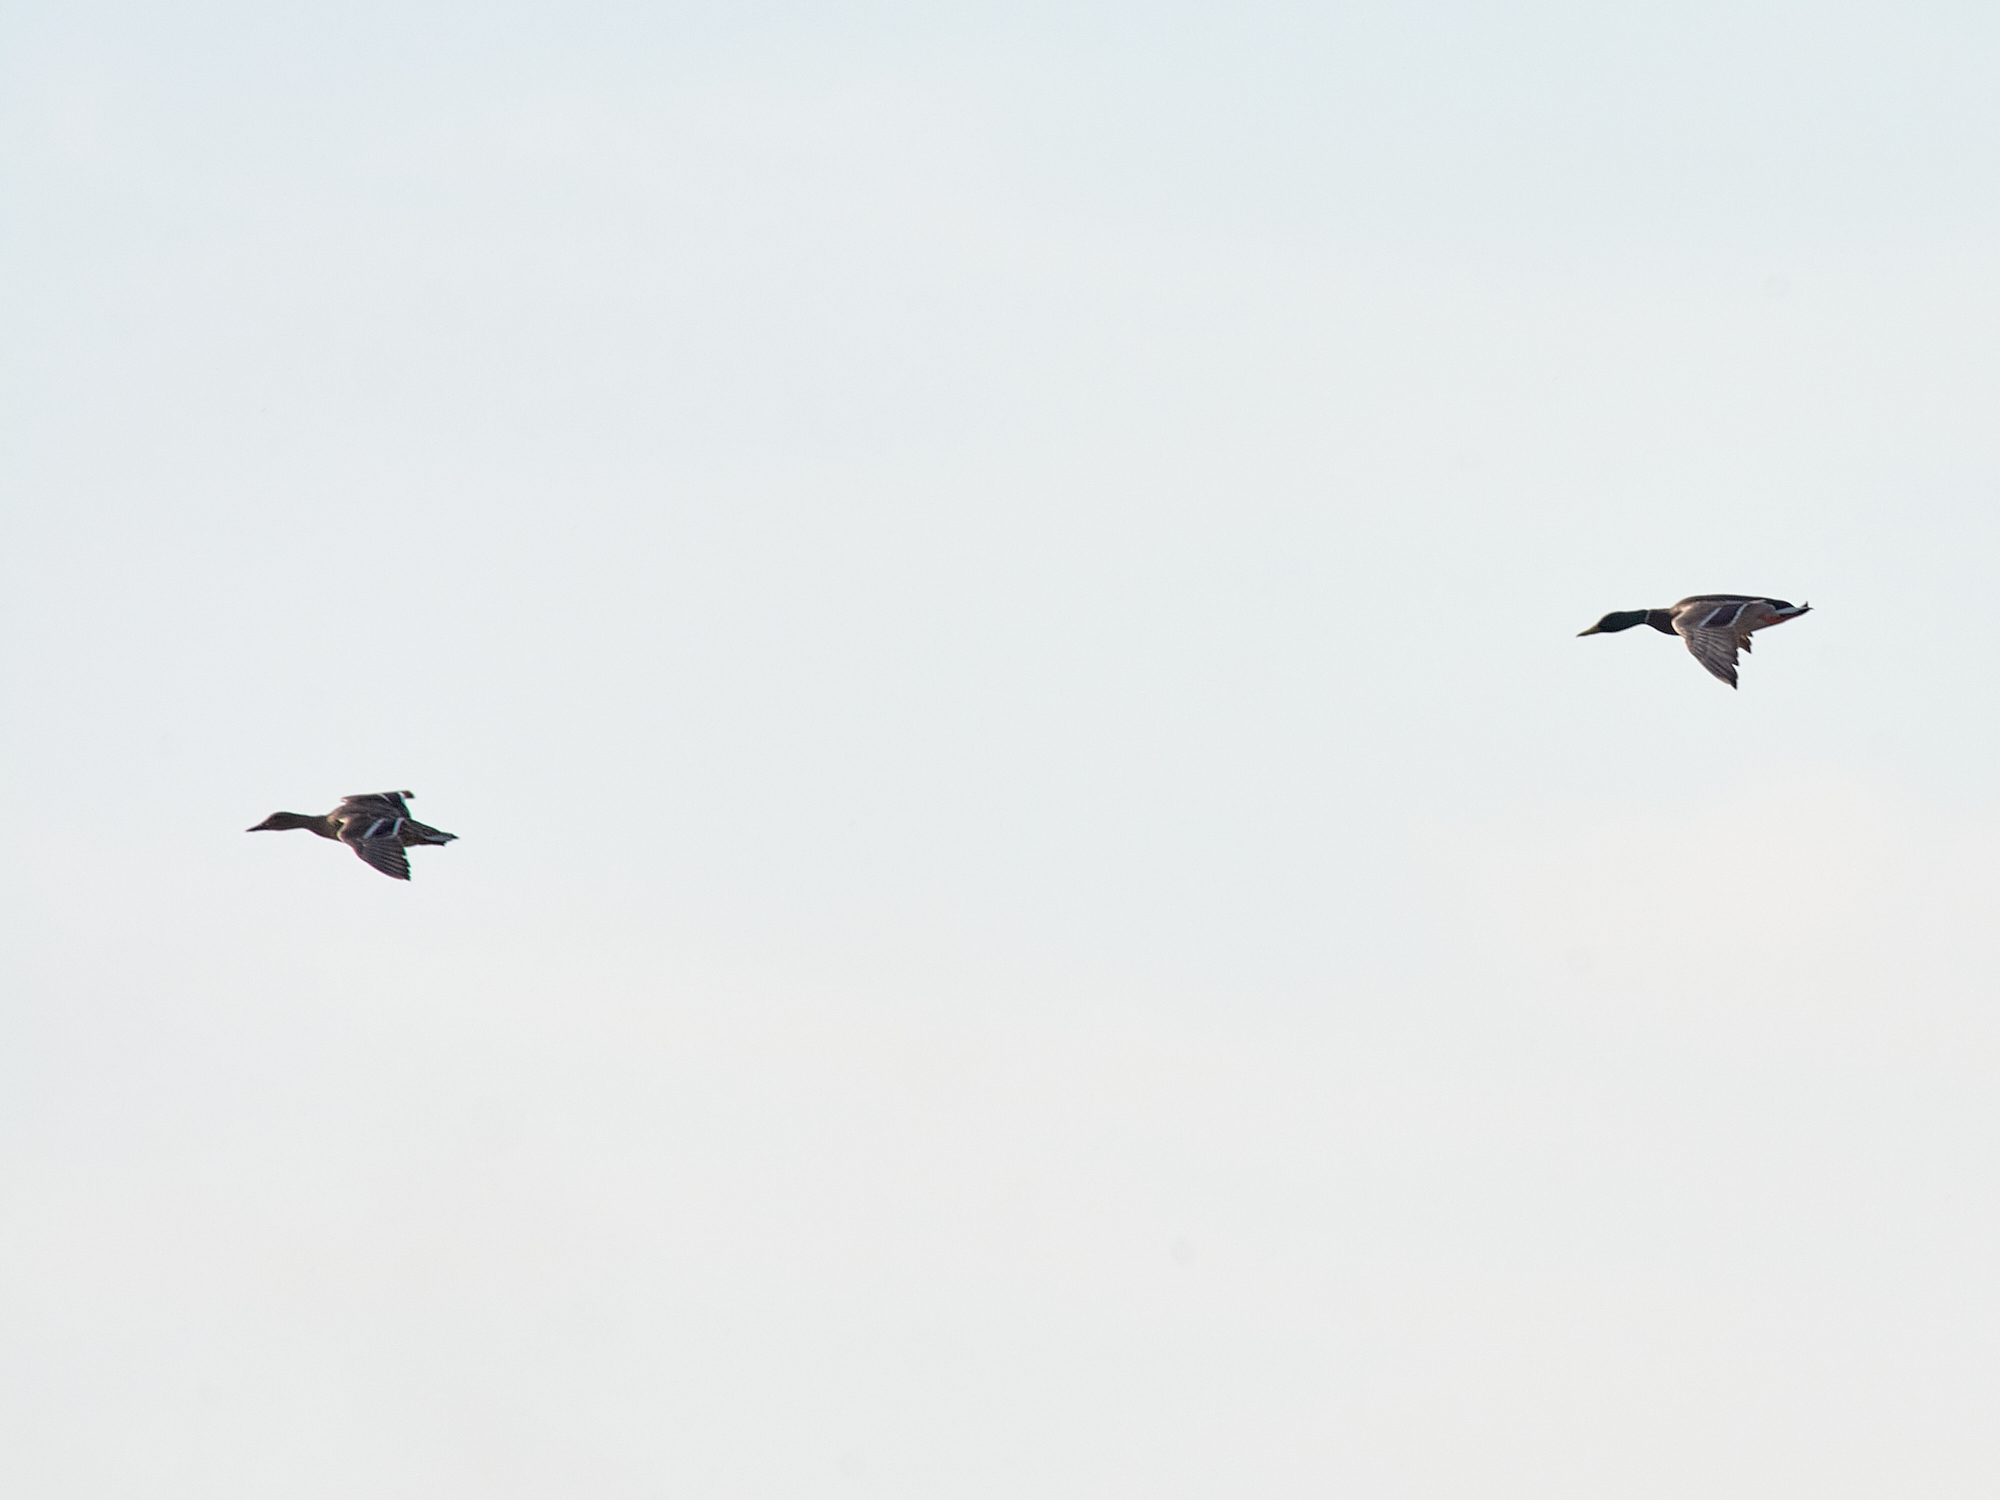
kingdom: Animalia
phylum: Chordata
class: Aves
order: Anseriformes
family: Anatidae
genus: Anas
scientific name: Anas platyrhynchos
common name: Mallard
